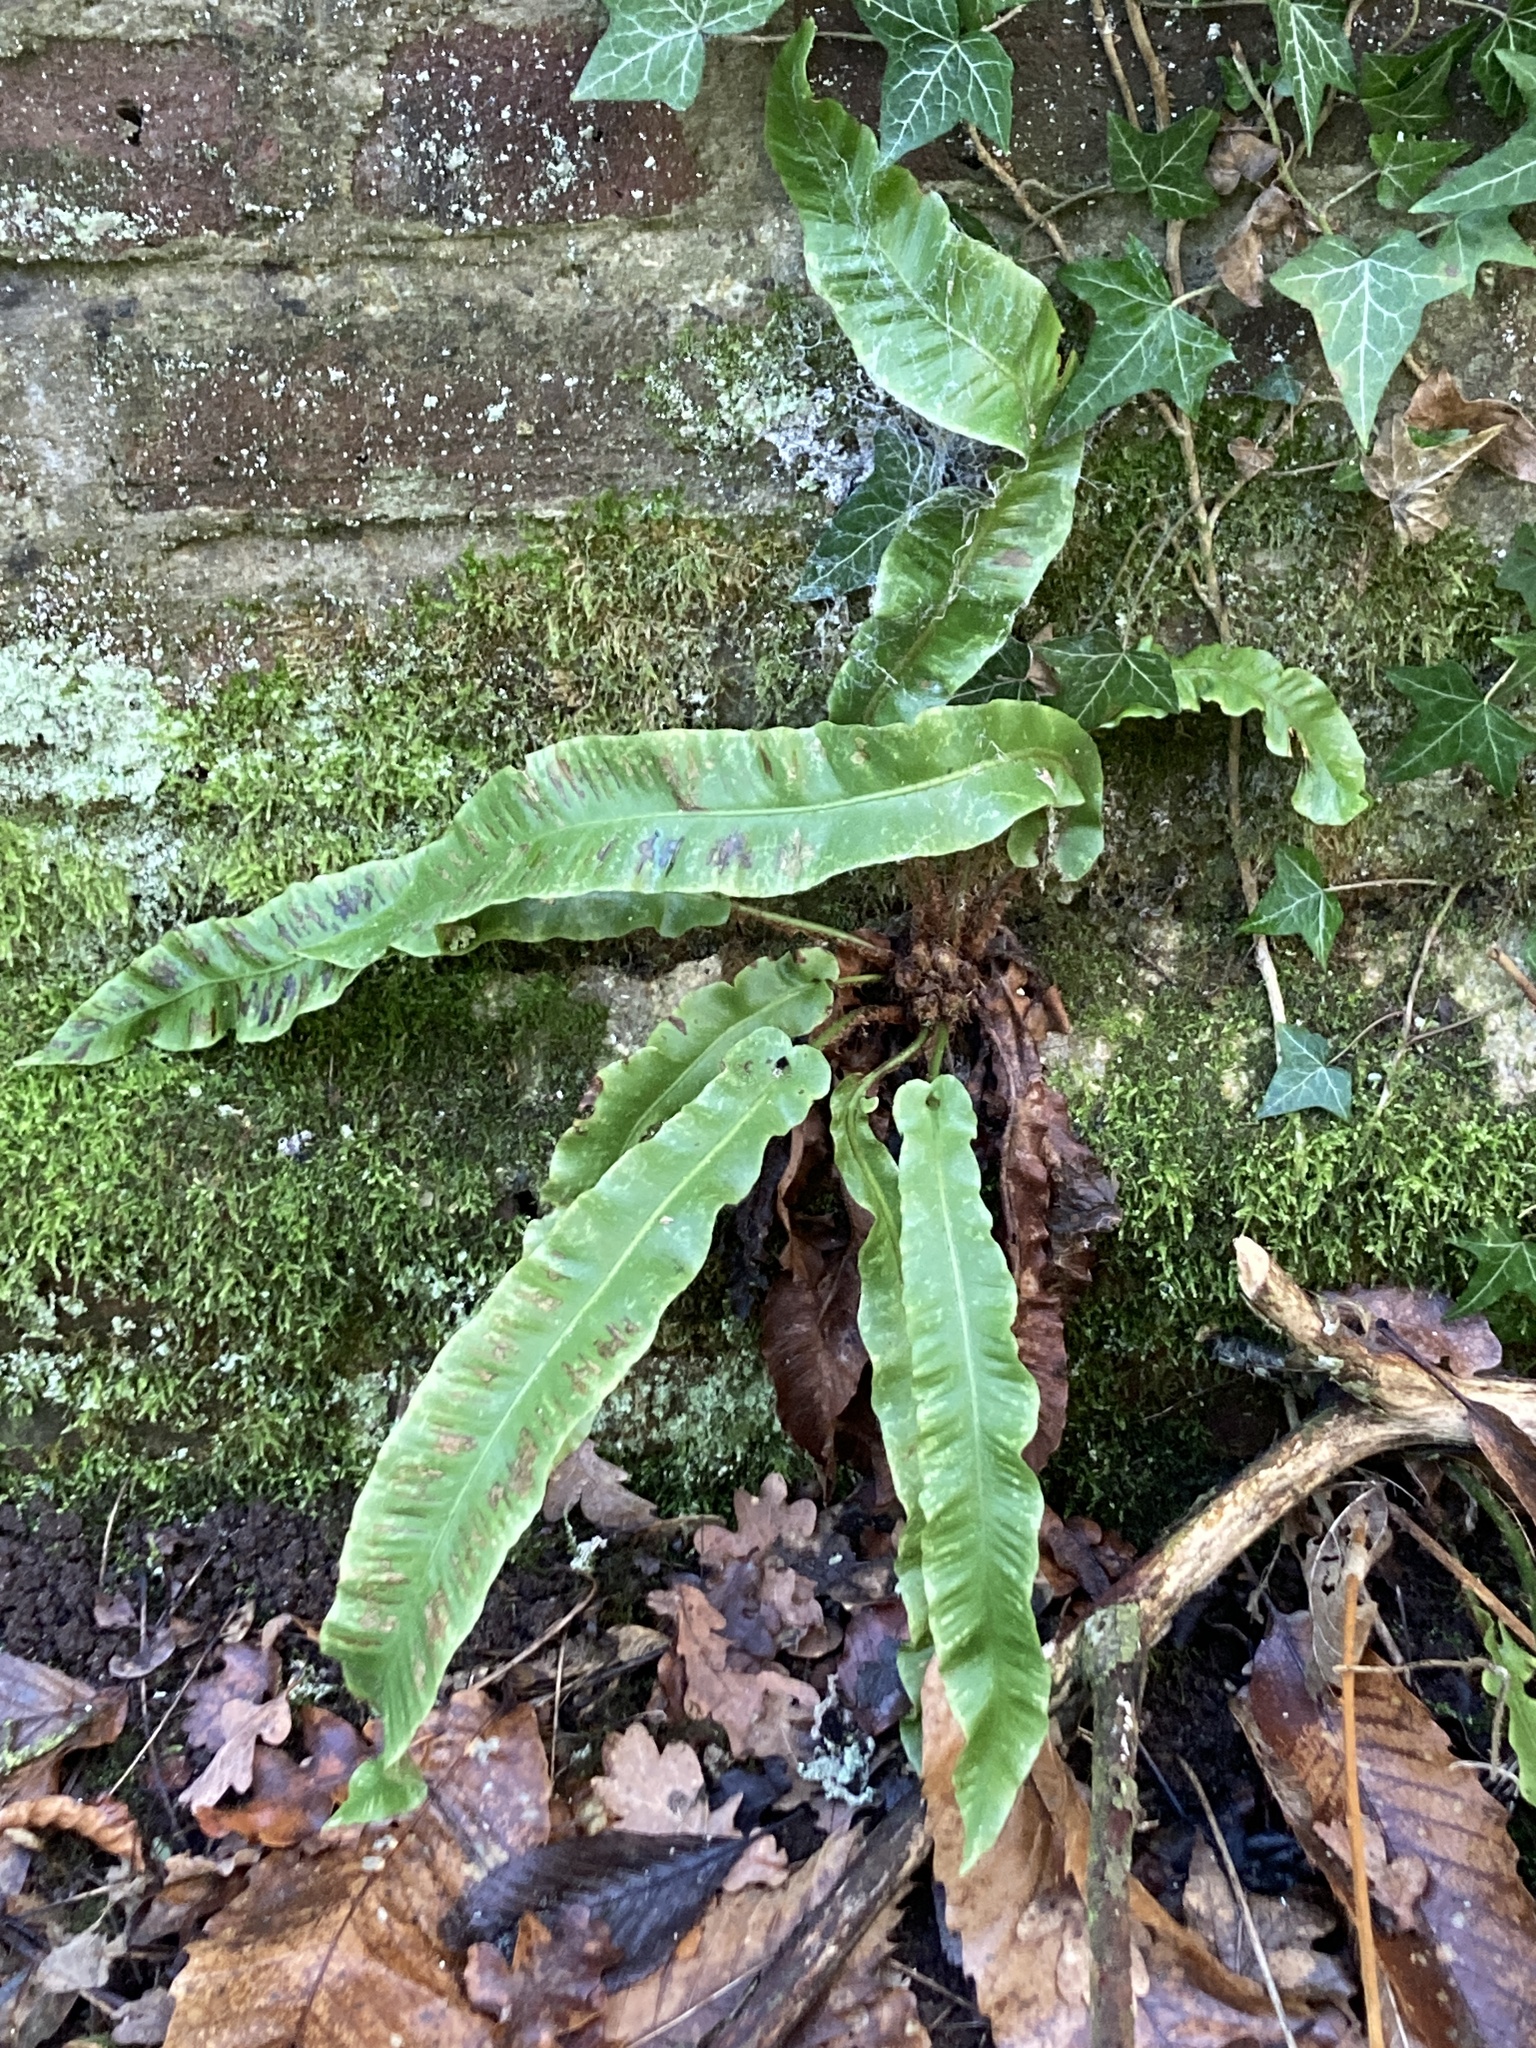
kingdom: Plantae
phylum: Tracheophyta
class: Polypodiopsida
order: Polypodiales
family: Aspleniaceae
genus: Asplenium
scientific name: Asplenium scolopendrium
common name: Hart's-tongue fern
